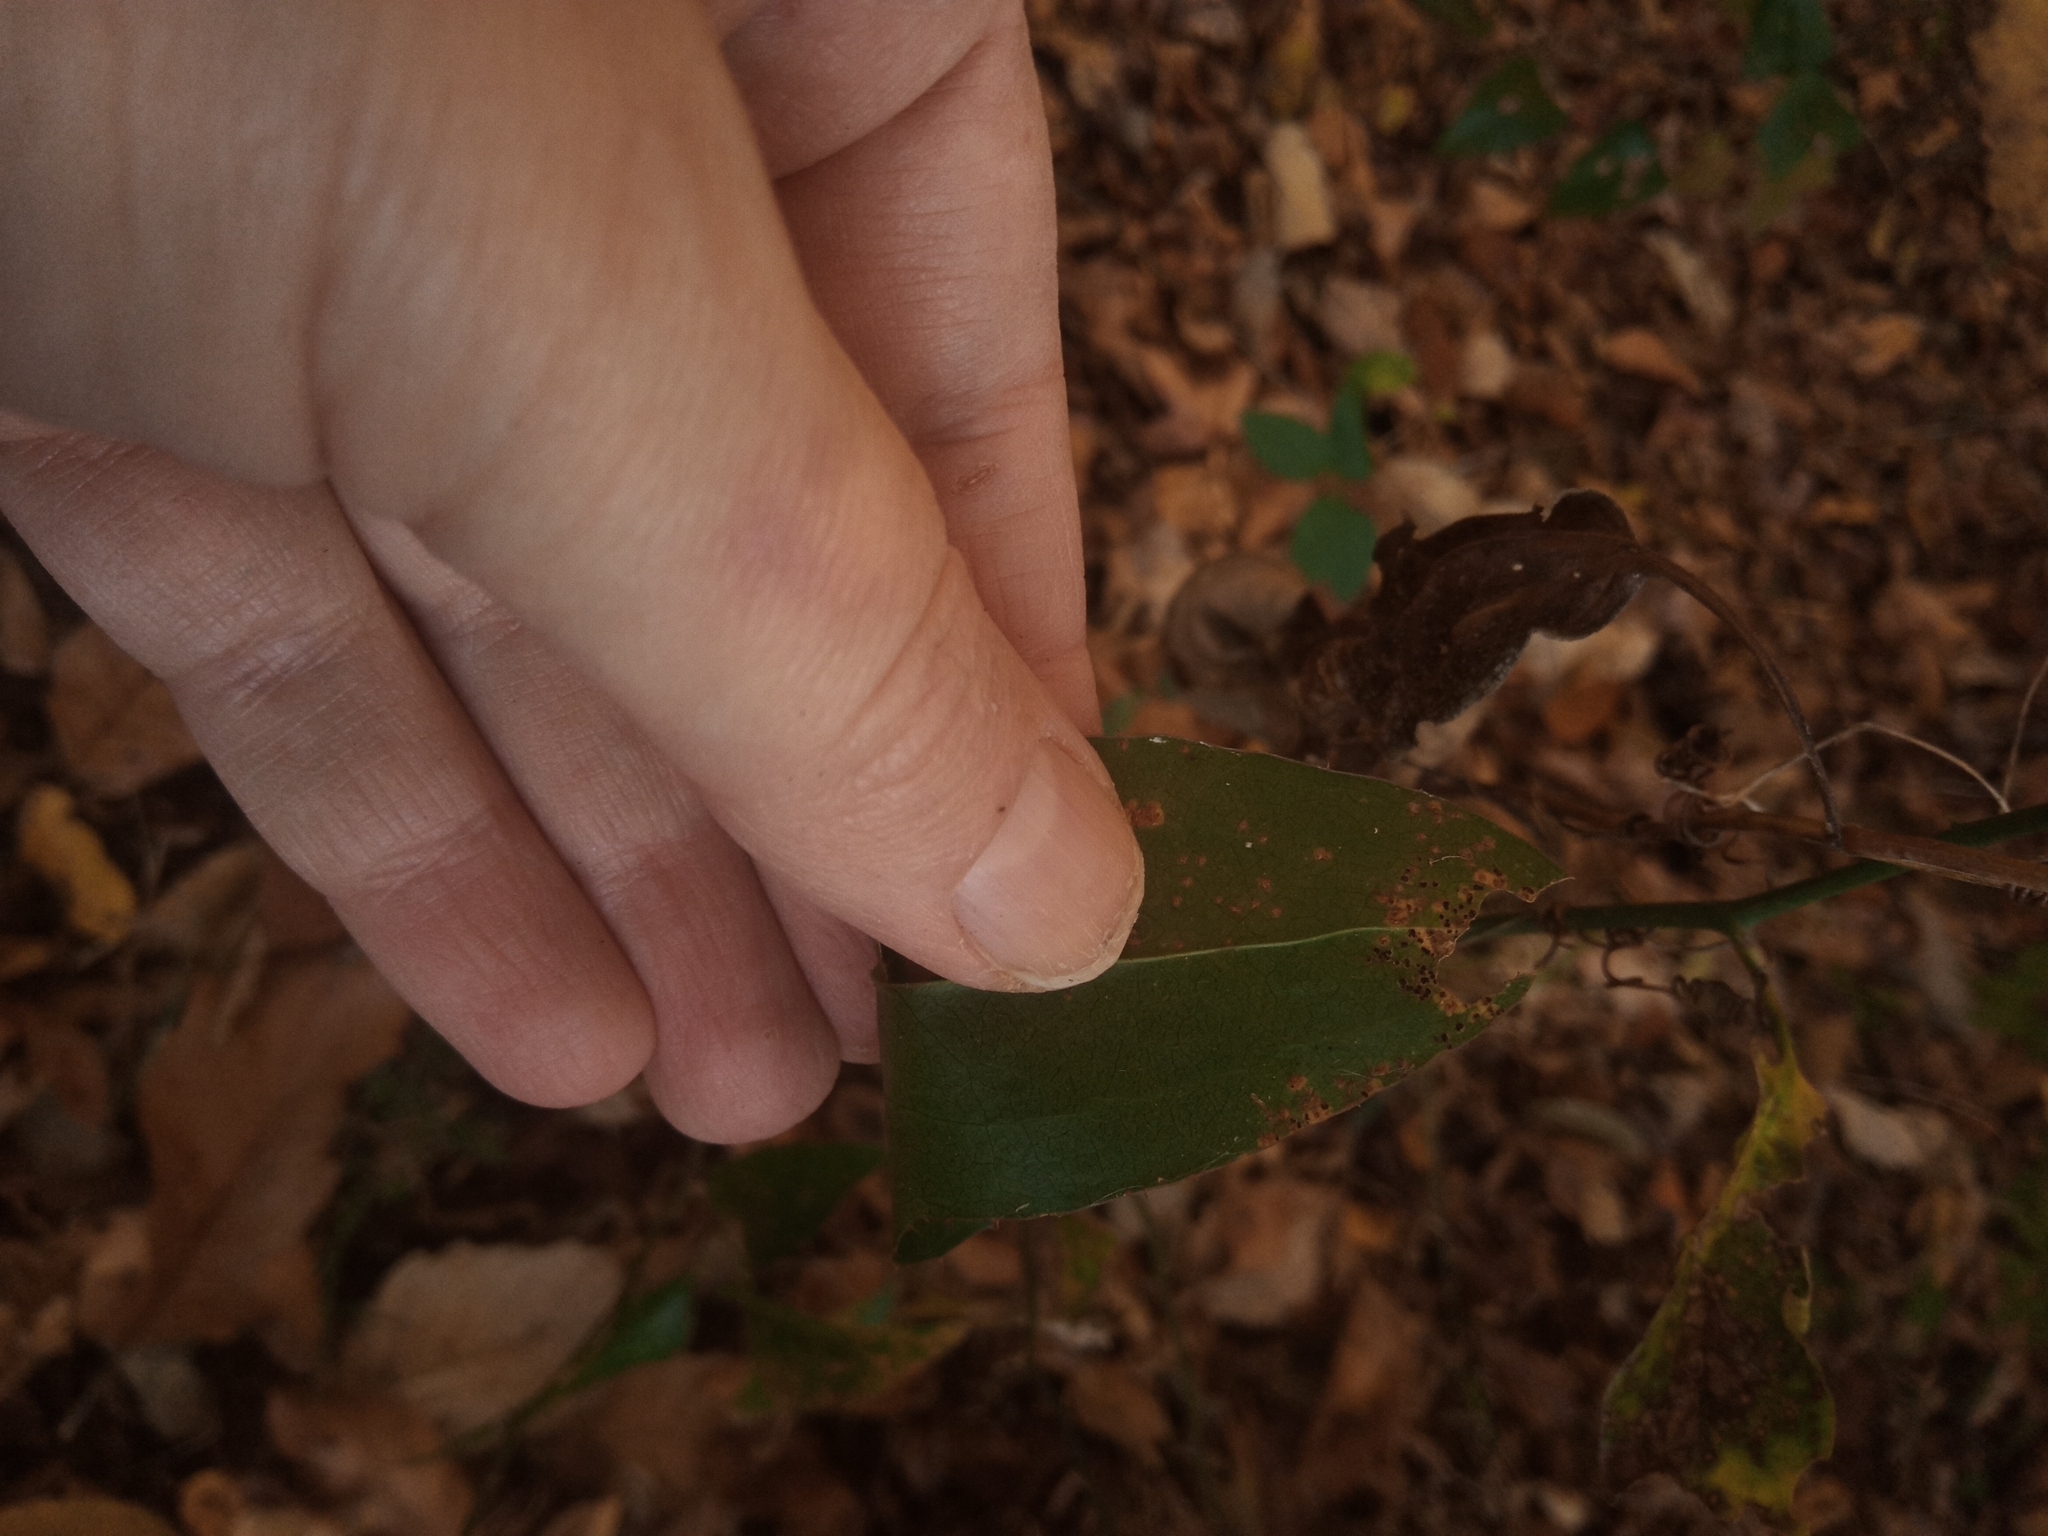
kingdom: Plantae
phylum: Tracheophyta
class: Liliopsida
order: Liliales
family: Smilacaceae
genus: Smilax
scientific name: Smilax bona-nox
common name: Catbrier
